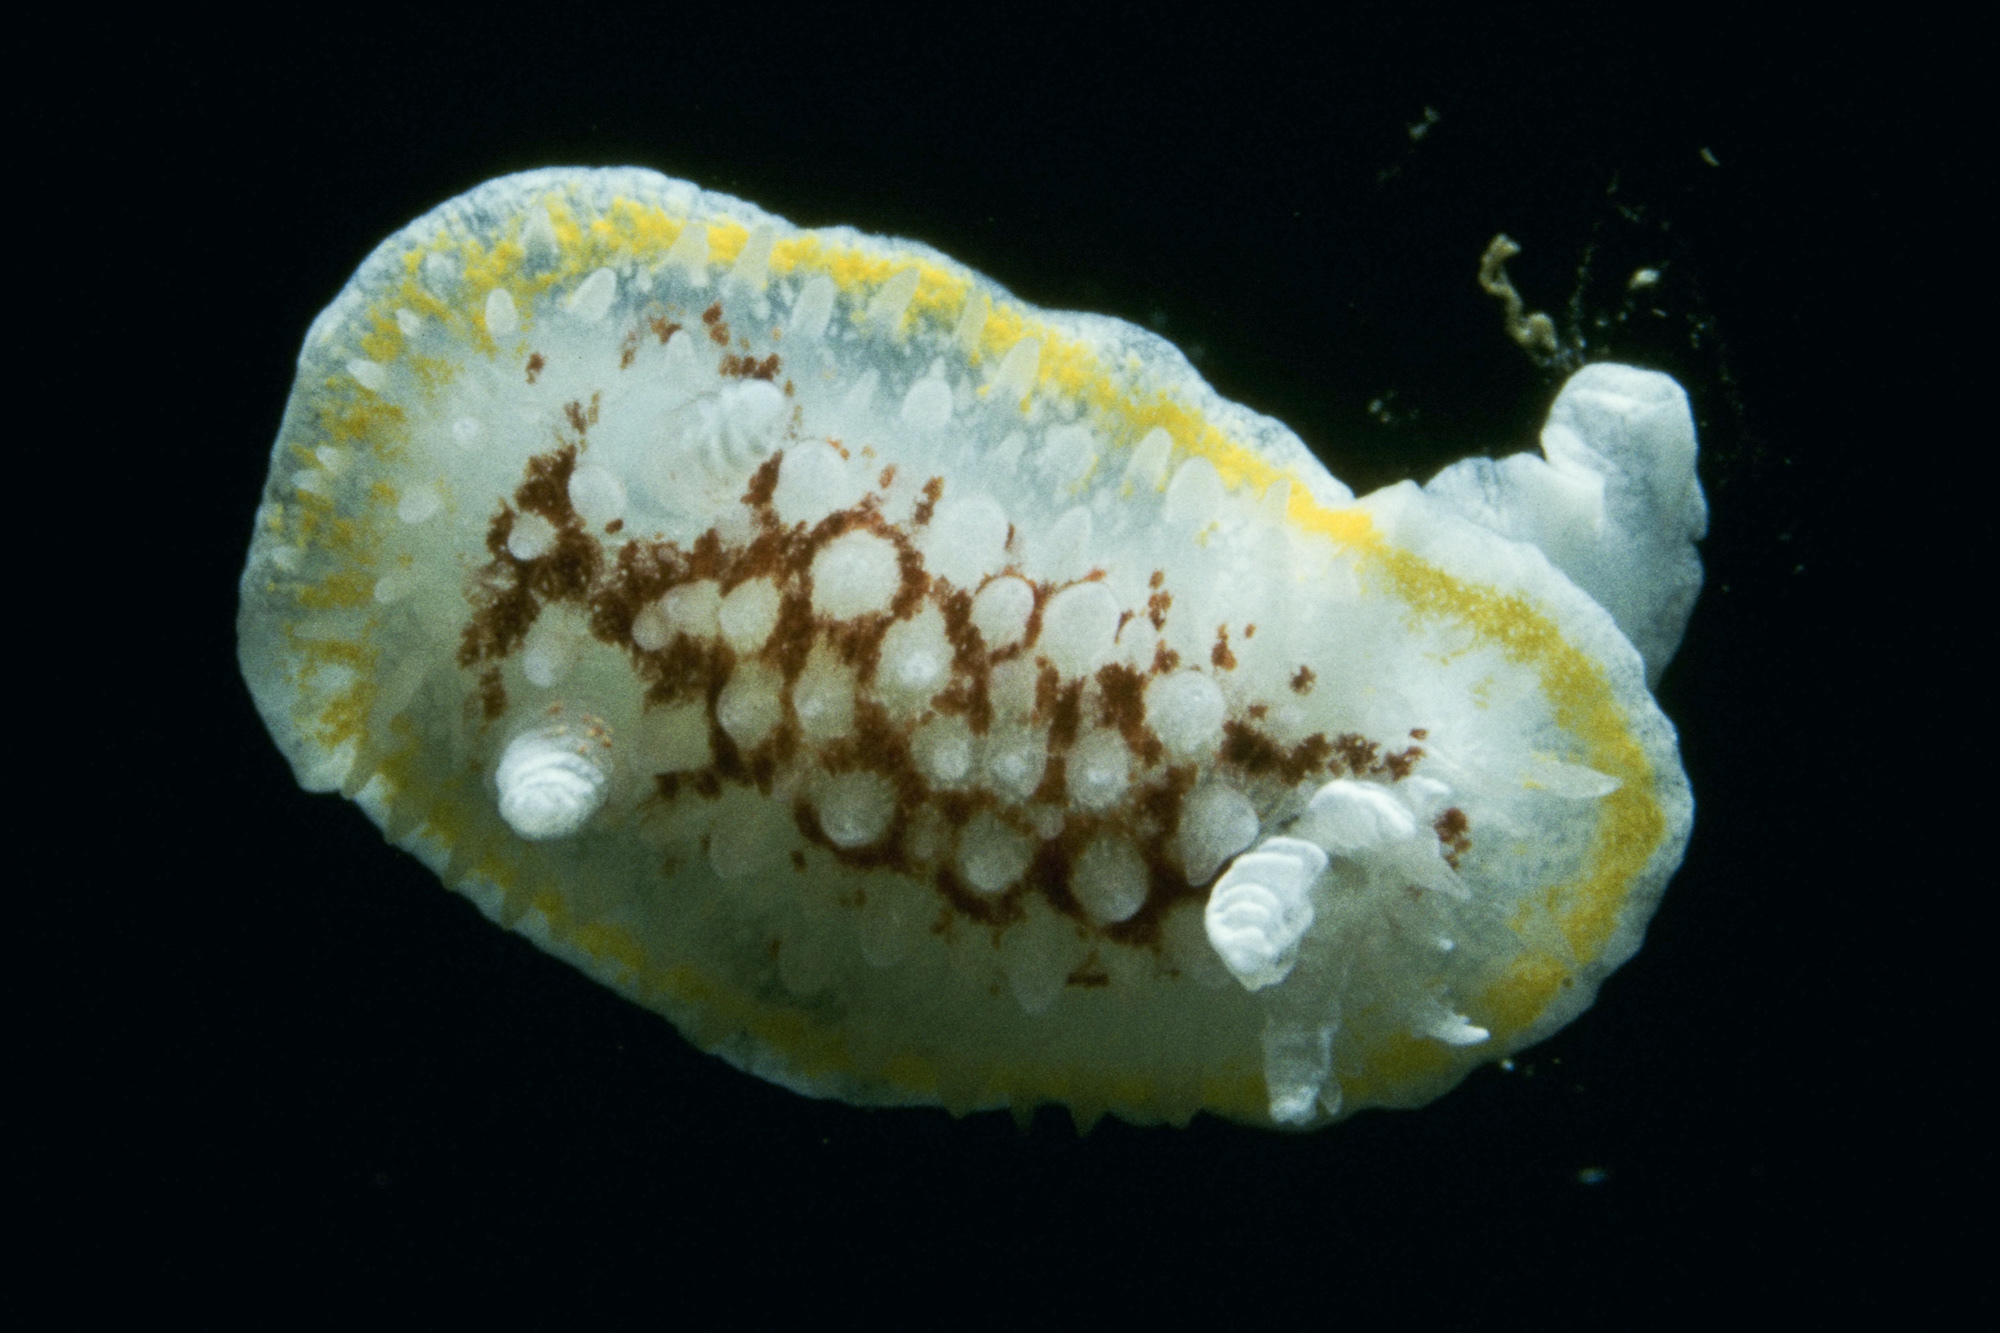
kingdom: Animalia
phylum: Mollusca
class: Gastropoda
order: Nudibranchia
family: Calycidorididae
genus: Diaphorodoris
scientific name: Diaphorodoris luteocincta
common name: Fried egg nudibranch
